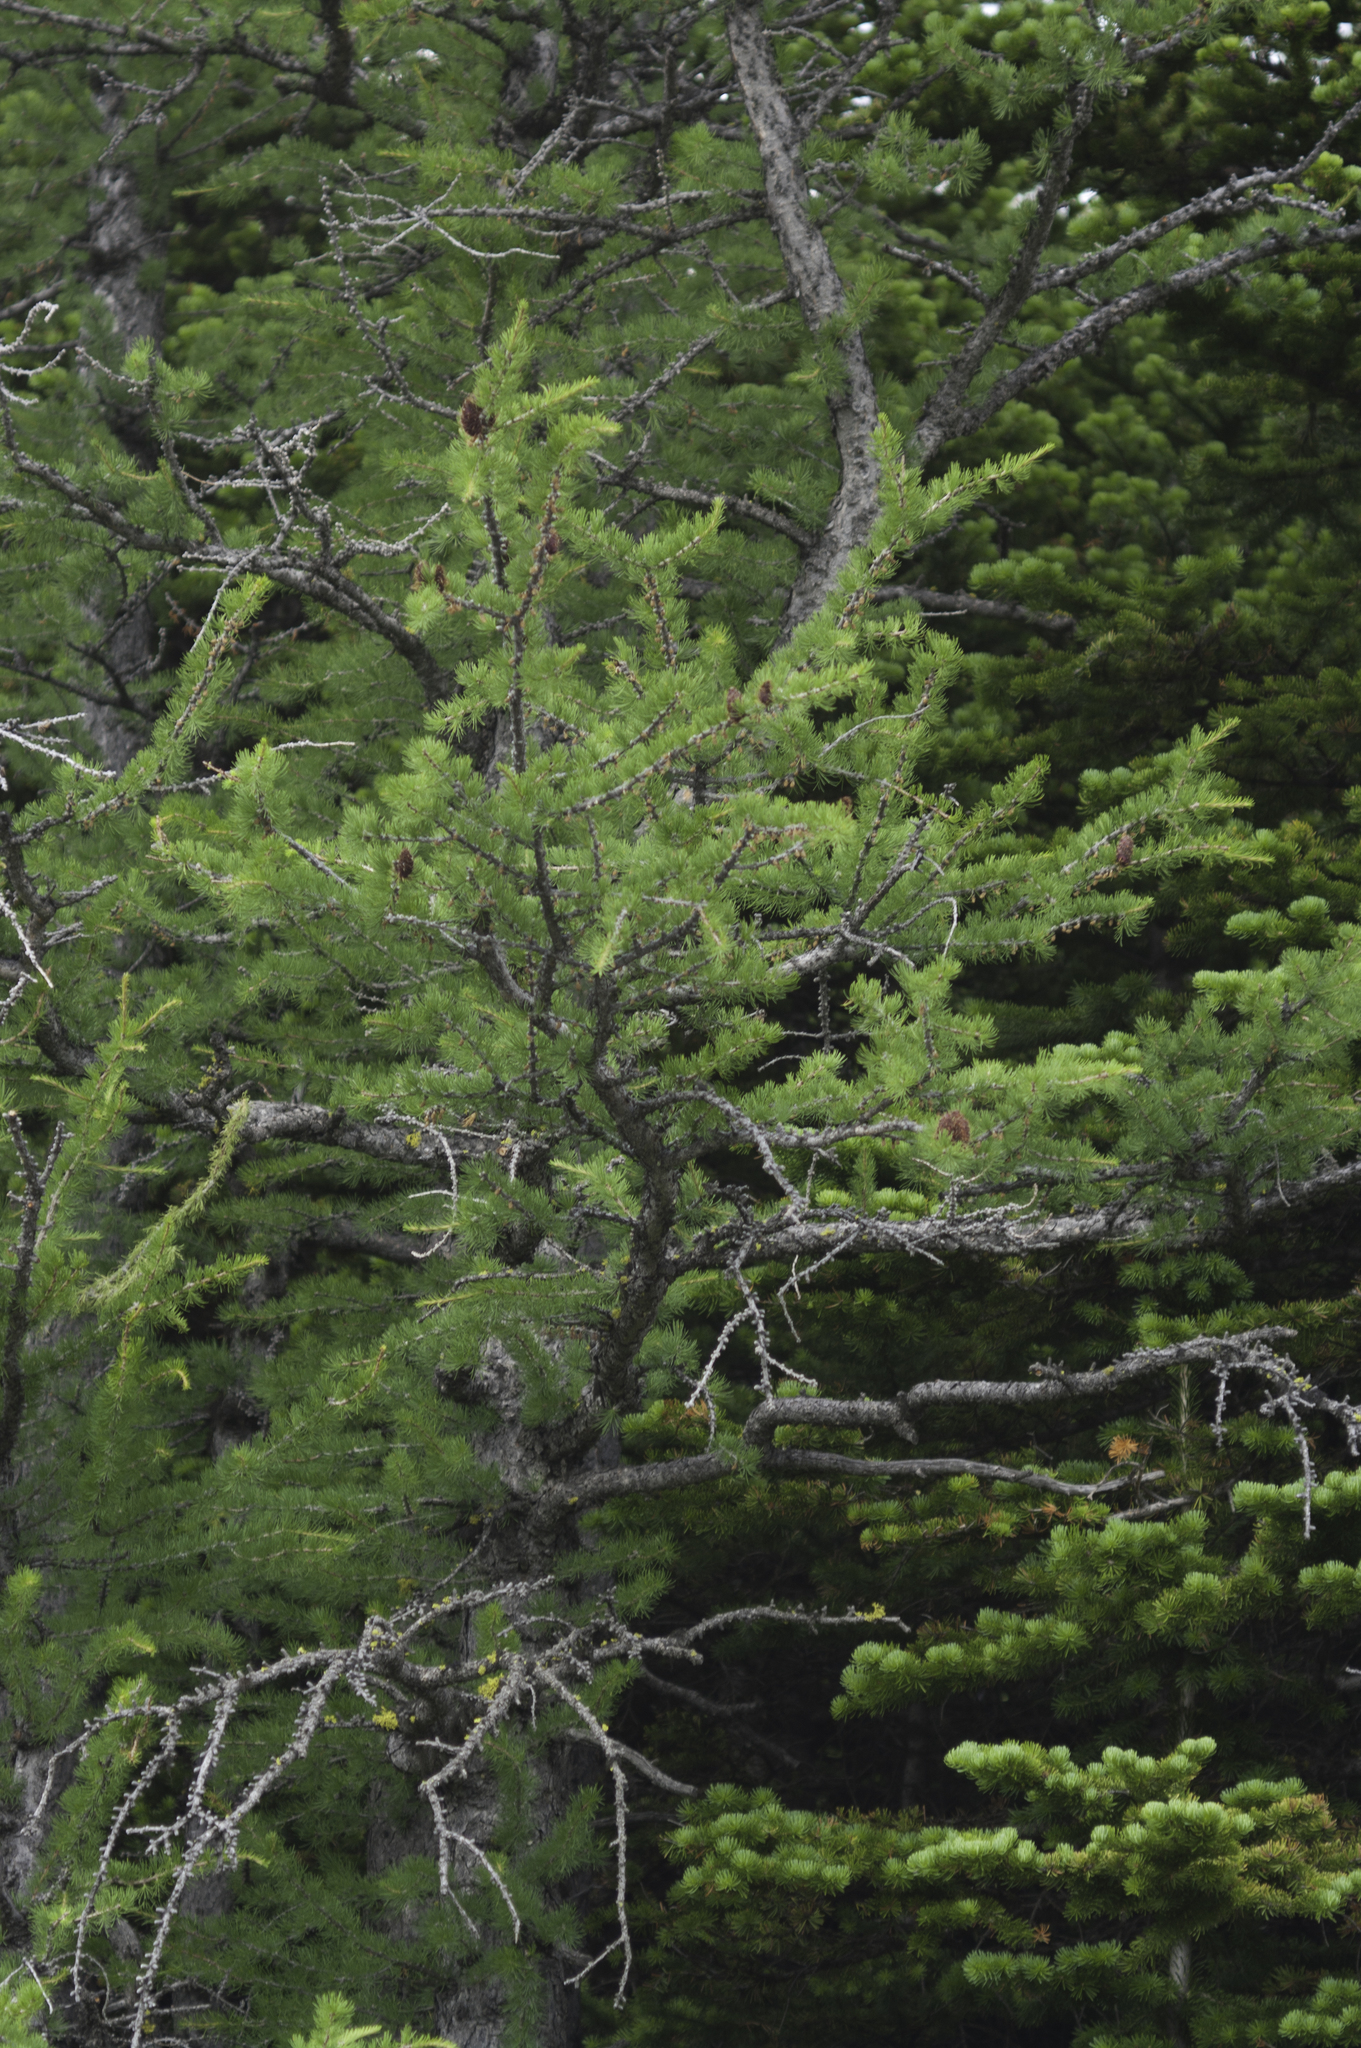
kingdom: Plantae
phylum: Tracheophyta
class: Pinopsida
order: Pinales
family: Pinaceae
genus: Larix
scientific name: Larix lyallii
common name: Alpine larch
